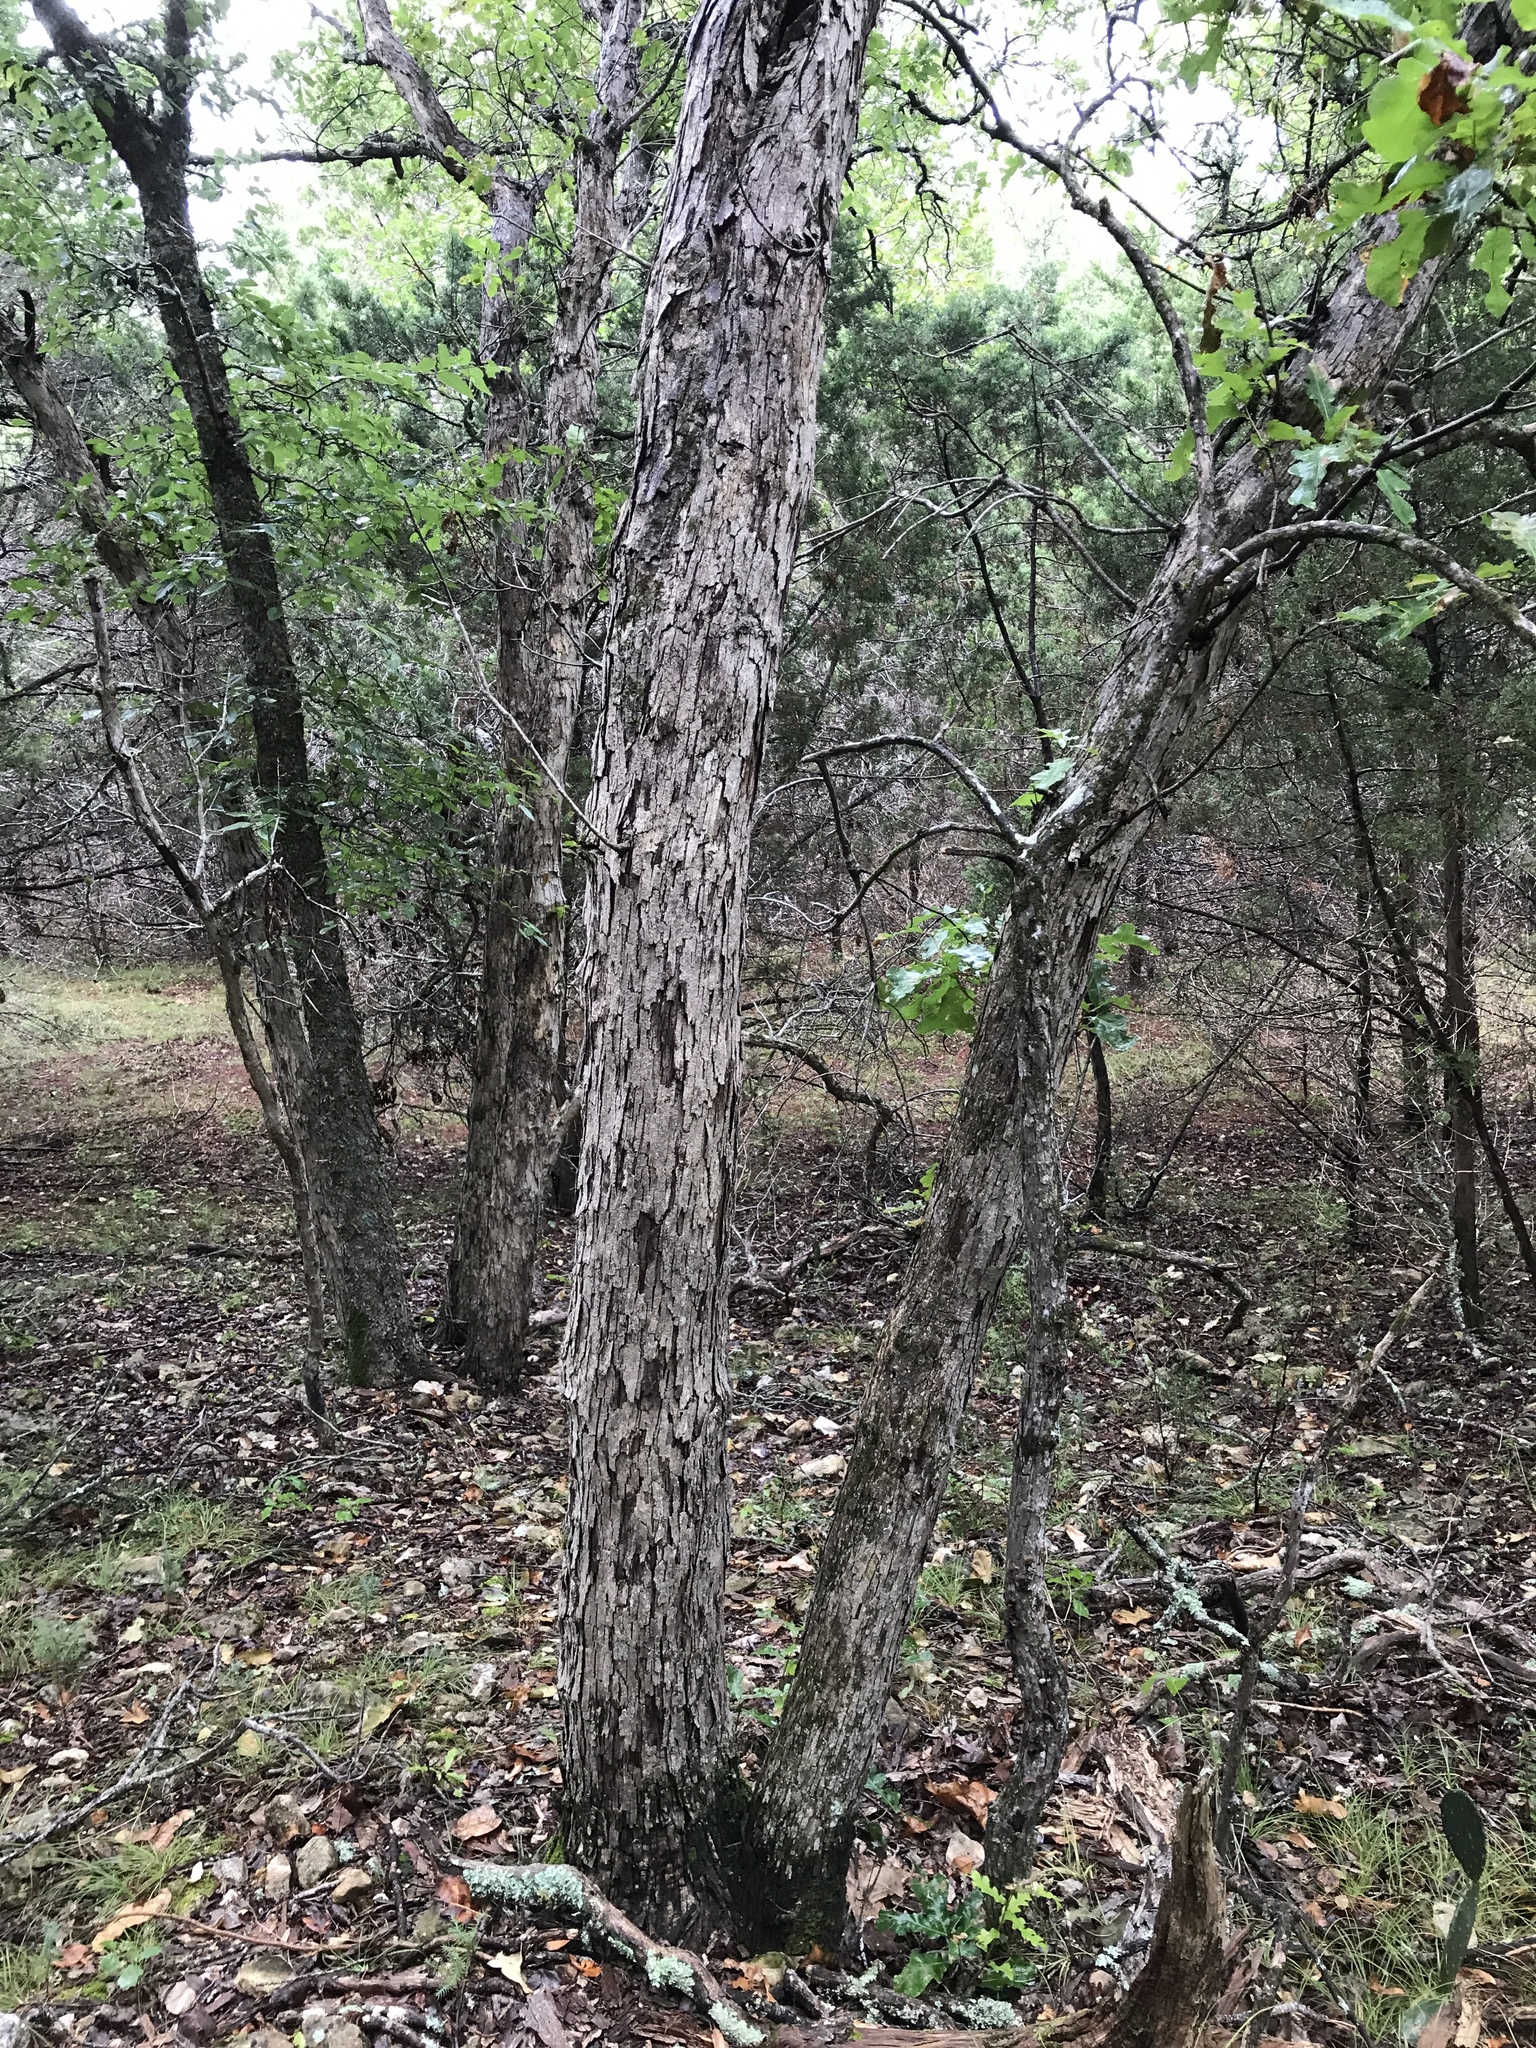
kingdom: Plantae
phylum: Tracheophyta
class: Magnoliopsida
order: Fagales
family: Fagaceae
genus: Quercus
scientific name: Quercus sinuata
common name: Durand oak
